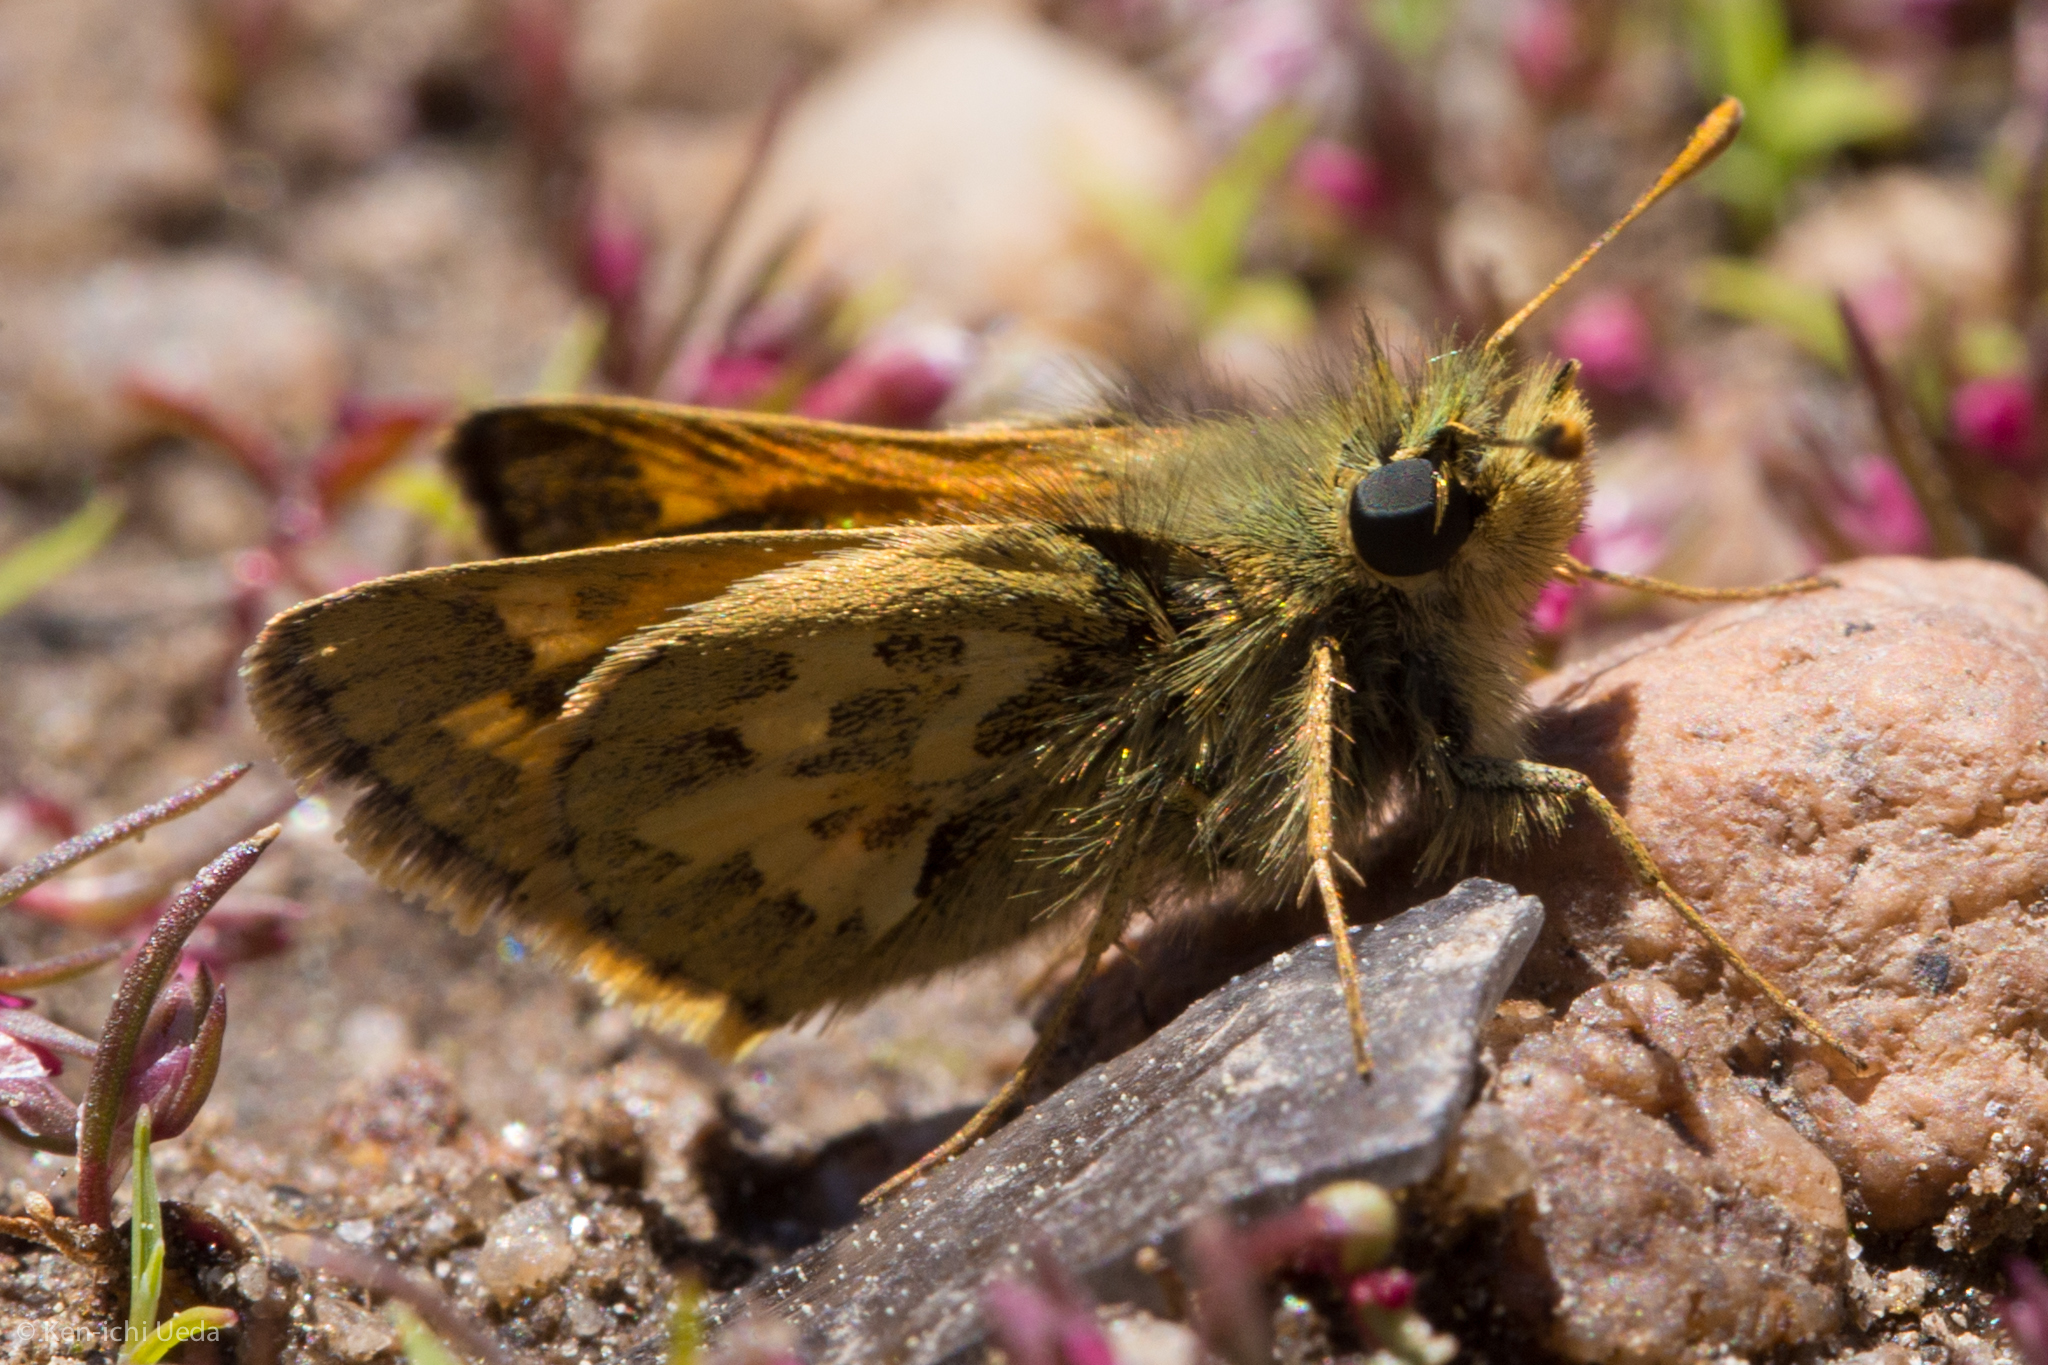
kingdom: Animalia
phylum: Arthropoda
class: Insecta
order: Lepidoptera
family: Hesperiidae
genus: Polites
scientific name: Polites sabuleti
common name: Sandhill skipper
